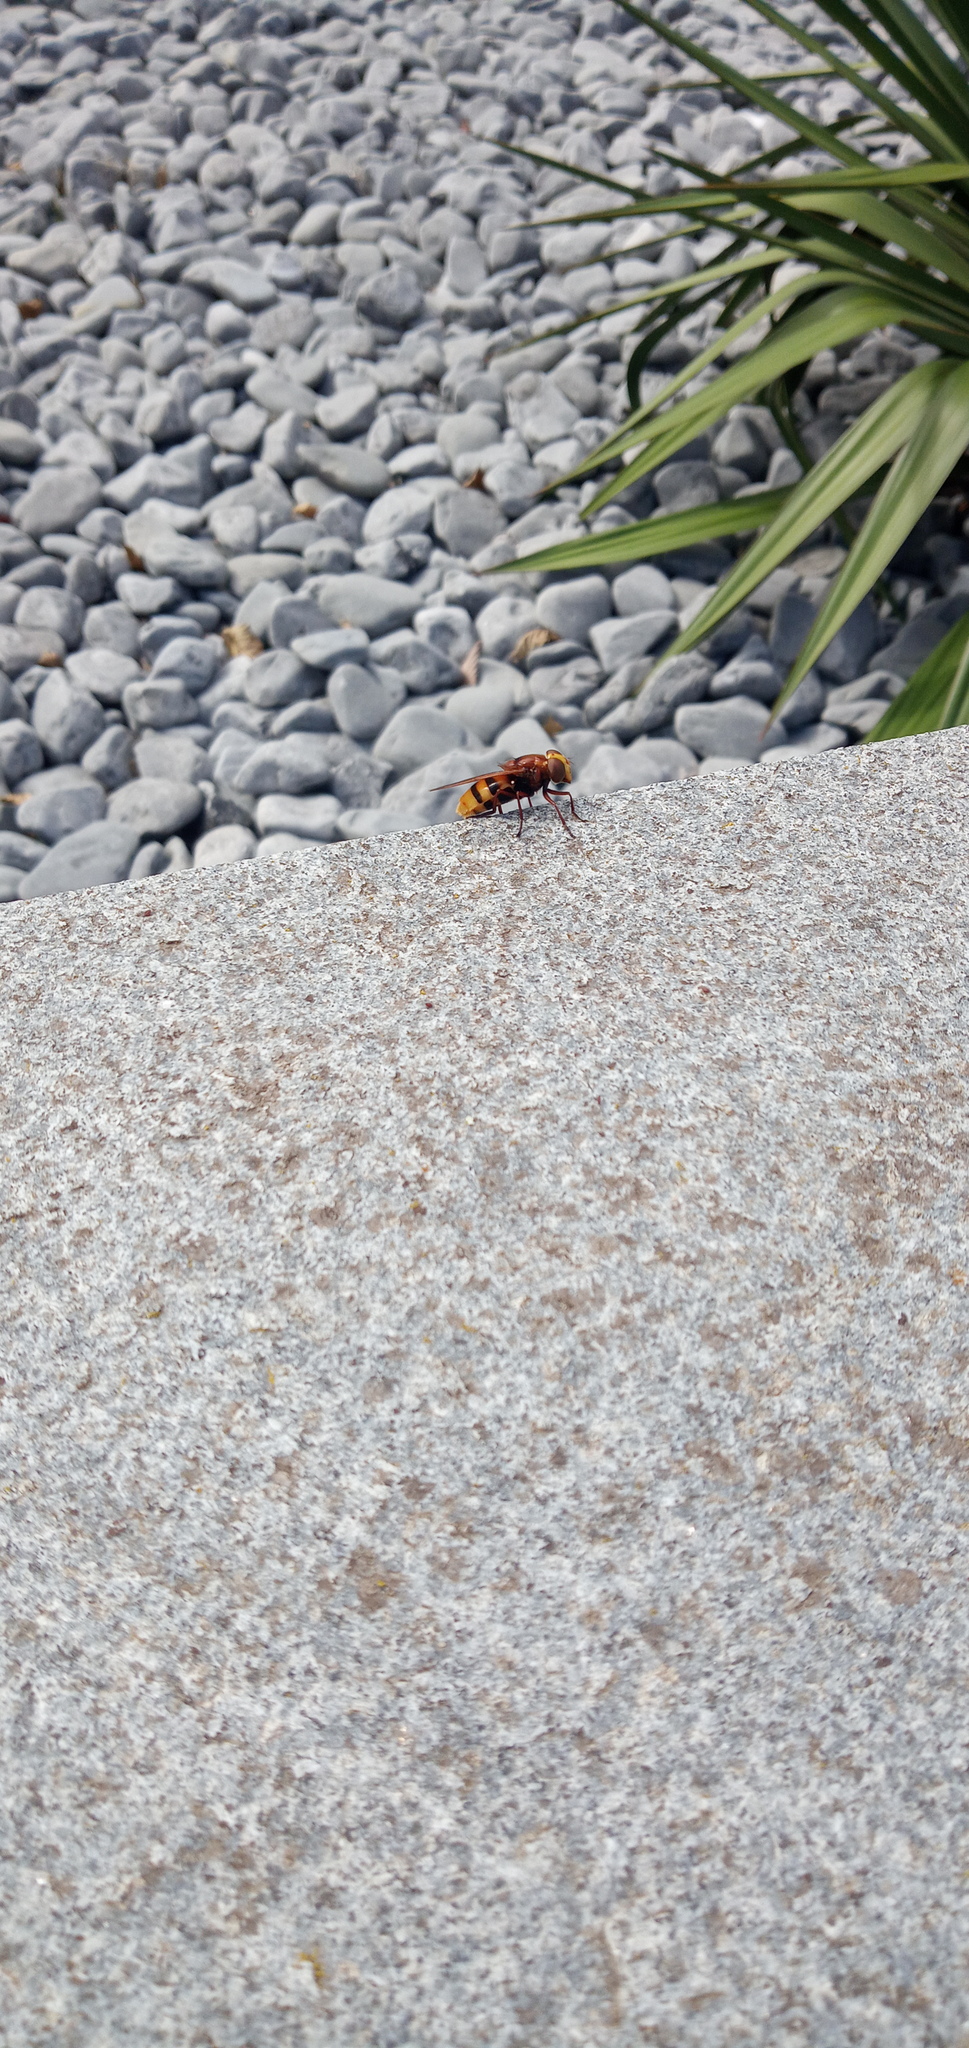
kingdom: Animalia
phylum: Arthropoda
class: Insecta
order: Diptera
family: Syrphidae
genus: Volucella
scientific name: Volucella zonaria
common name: Hornet hoverfly
